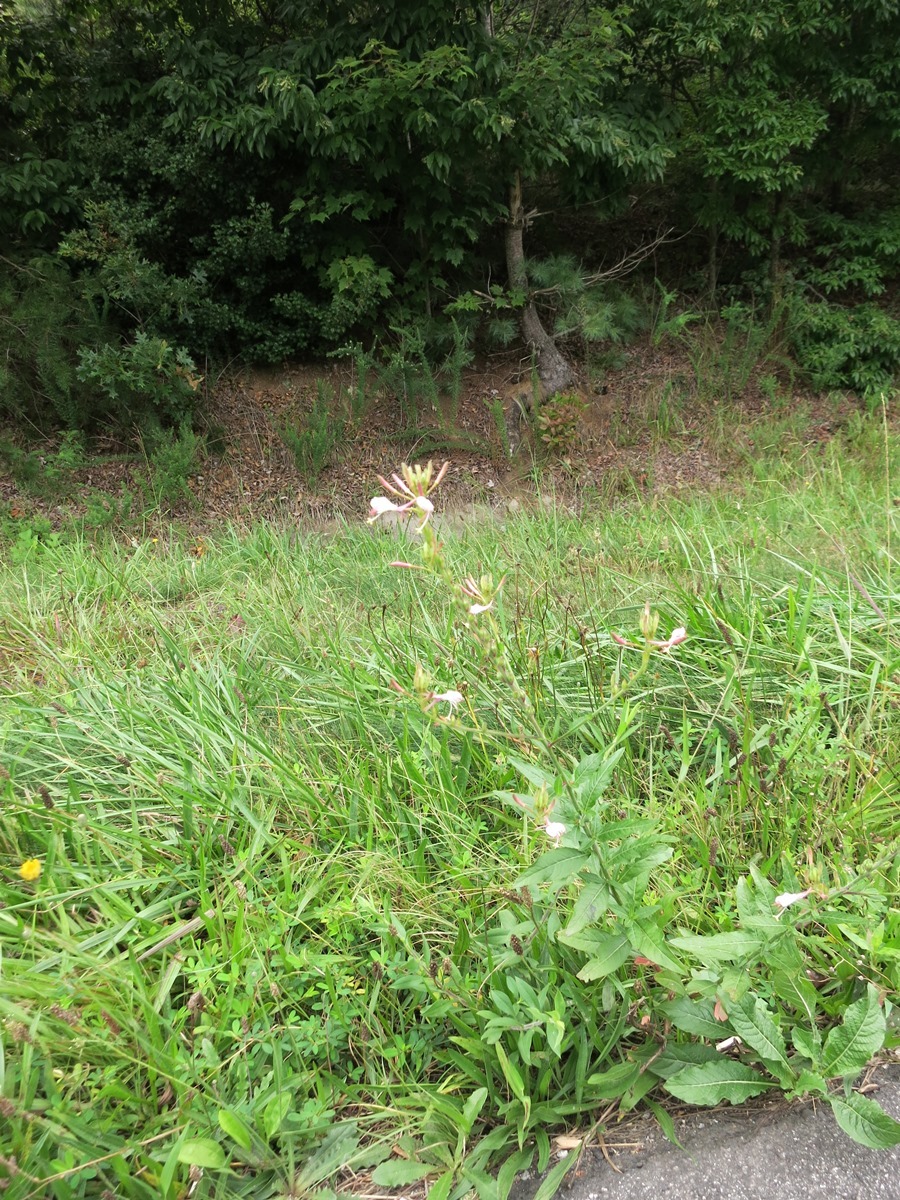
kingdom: Plantae
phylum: Tracheophyta
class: Magnoliopsida
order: Myrtales
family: Onagraceae
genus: Oenothera
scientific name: Oenothera gaura
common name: Biennial beeblossom
